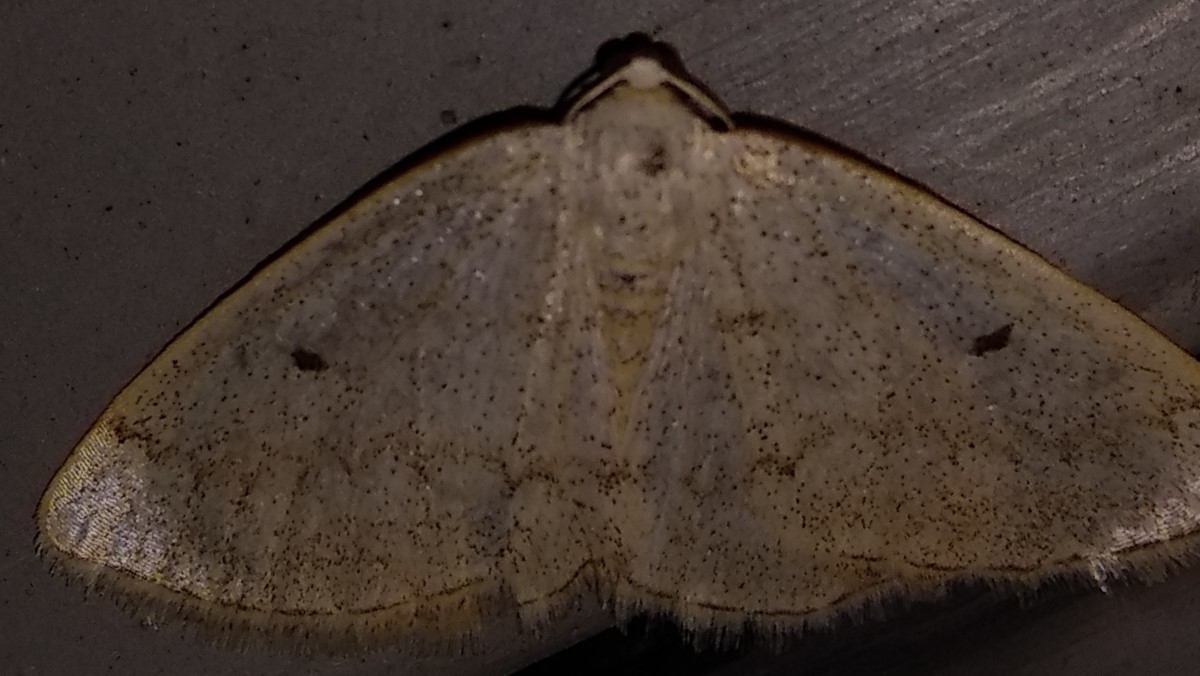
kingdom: Animalia
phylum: Arthropoda
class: Insecta
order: Lepidoptera
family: Geometridae
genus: Lomographa
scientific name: Lomographa glomeraria
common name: Gray spring moth
